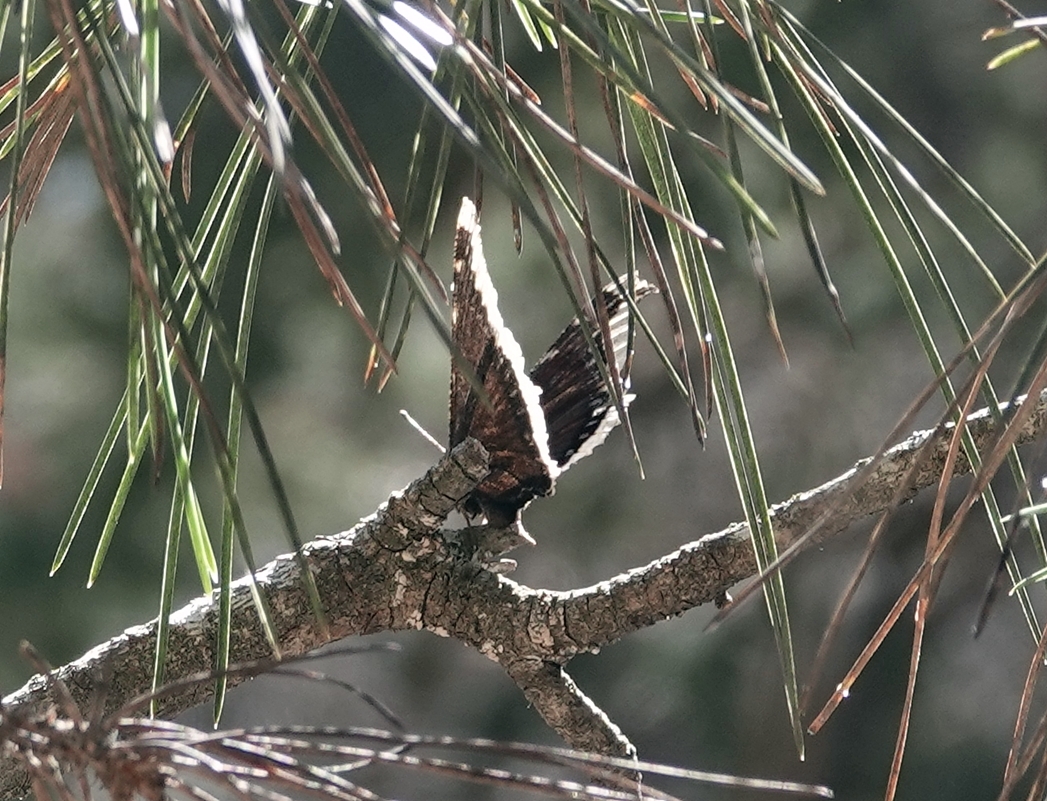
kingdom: Animalia
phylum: Arthropoda
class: Insecta
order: Lepidoptera
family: Nymphalidae
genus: Nymphalis
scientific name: Nymphalis antiopa
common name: Camberwell beauty
